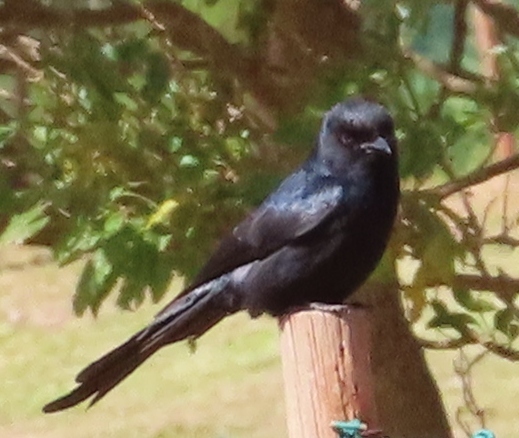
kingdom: Animalia
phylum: Chordata
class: Aves
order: Passeriformes
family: Dicruridae
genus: Dicrurus
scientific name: Dicrurus adsimilis
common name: Fork-tailed drongo
